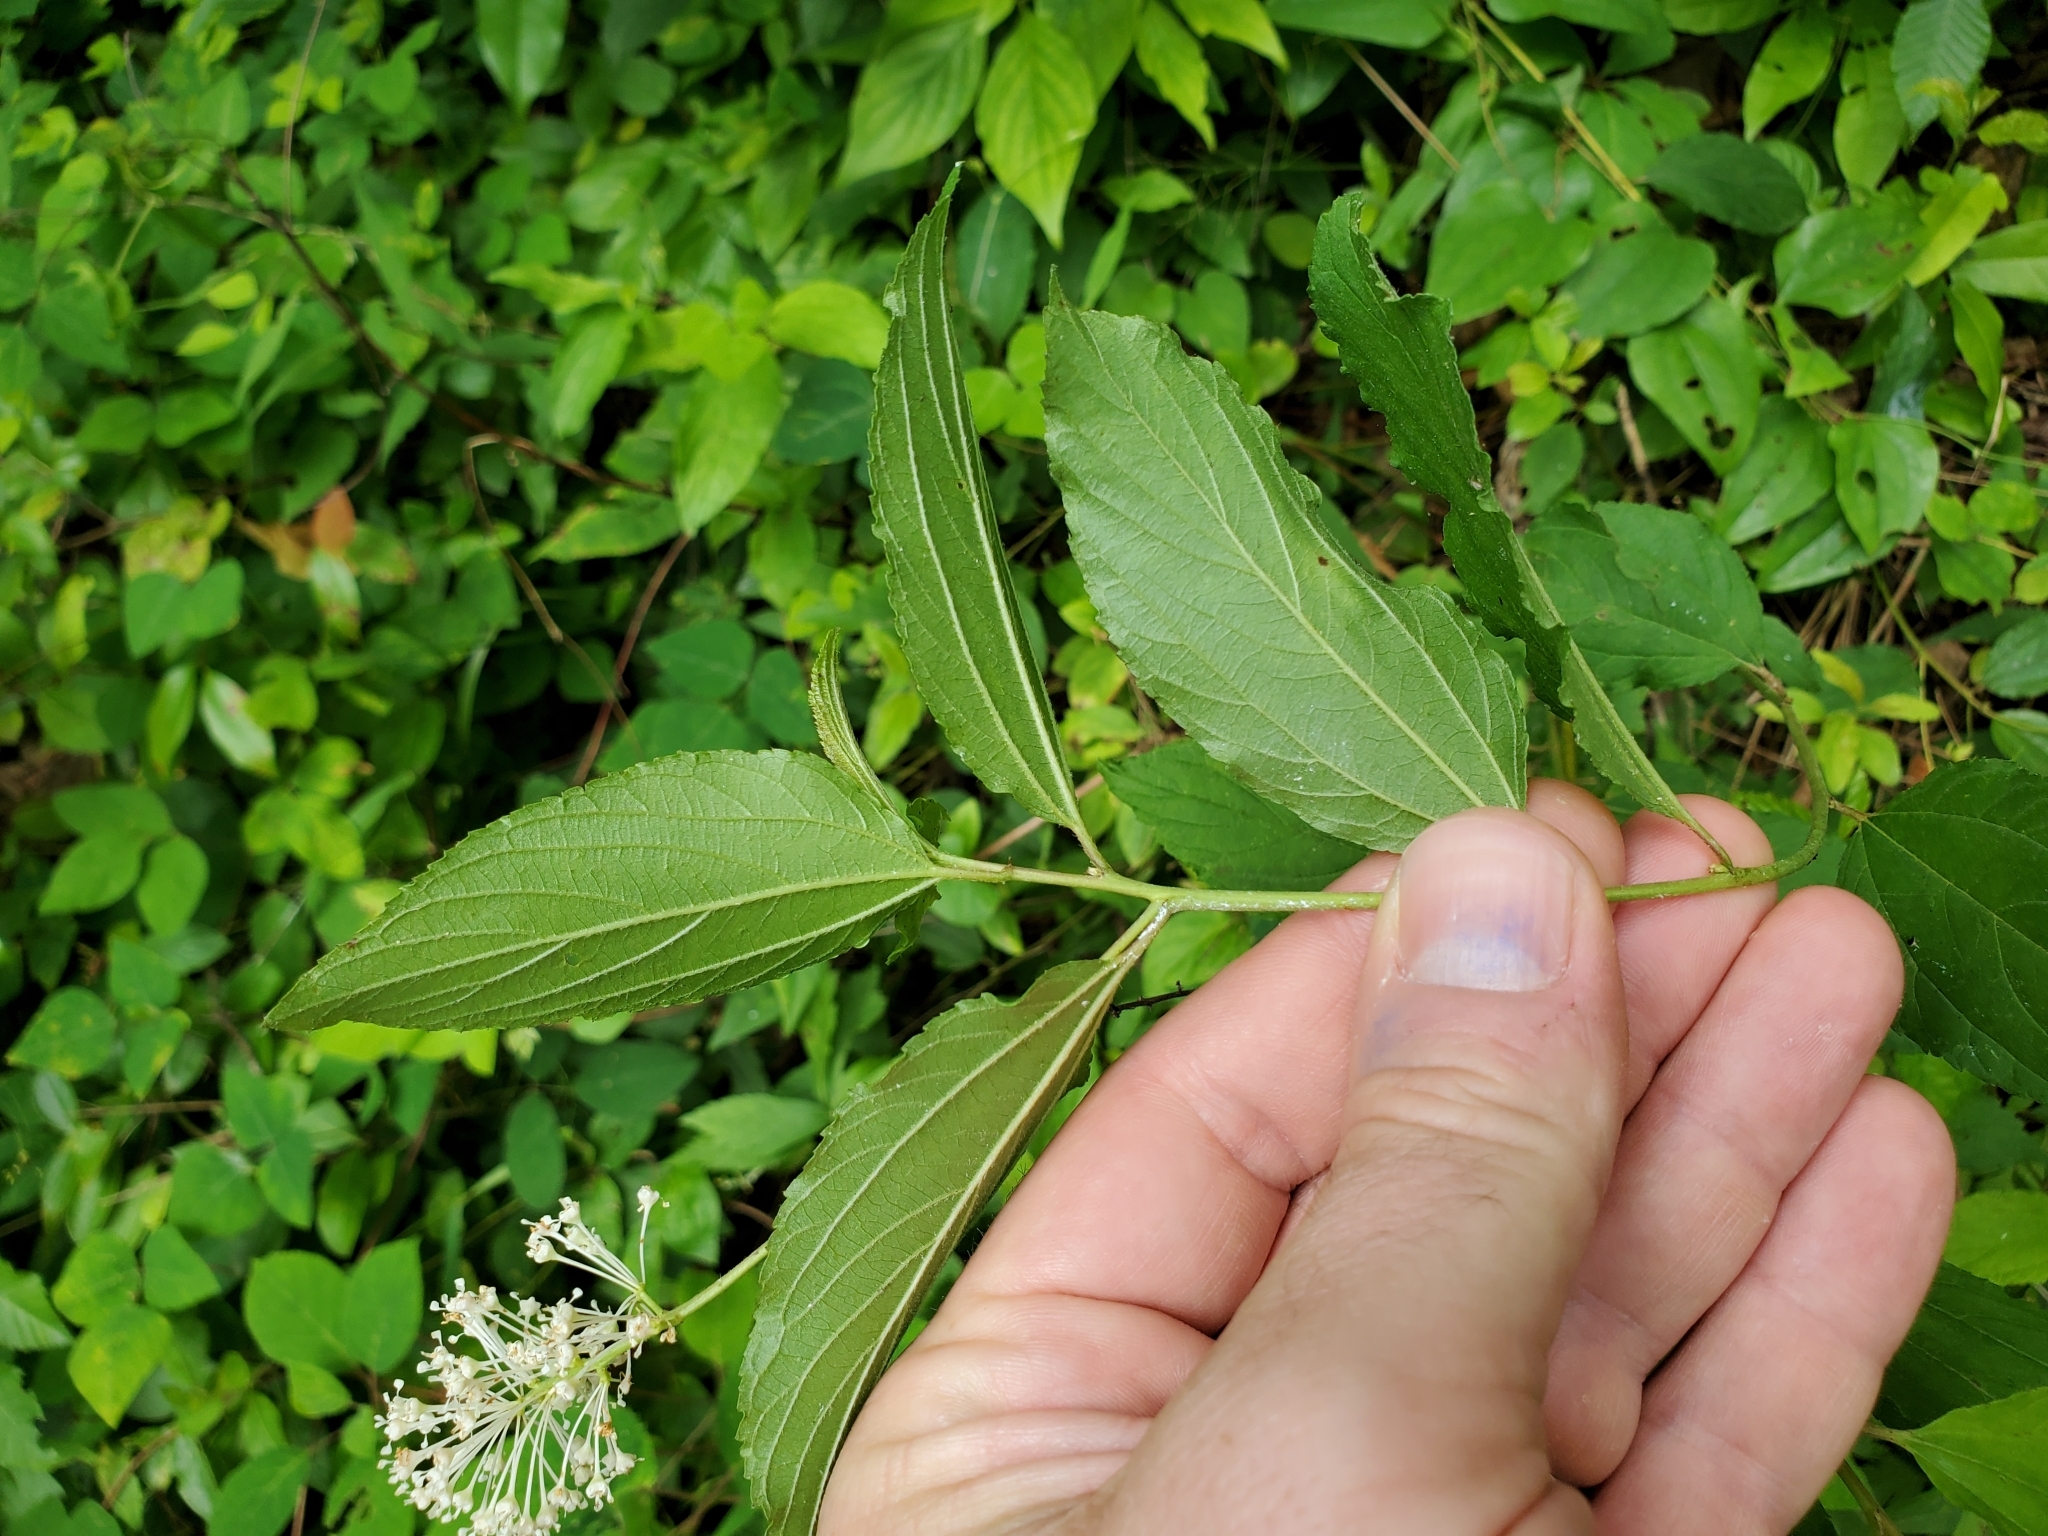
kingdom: Plantae
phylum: Tracheophyta
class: Magnoliopsida
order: Rosales
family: Rhamnaceae
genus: Ceanothus
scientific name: Ceanothus americanus
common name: Redroot
